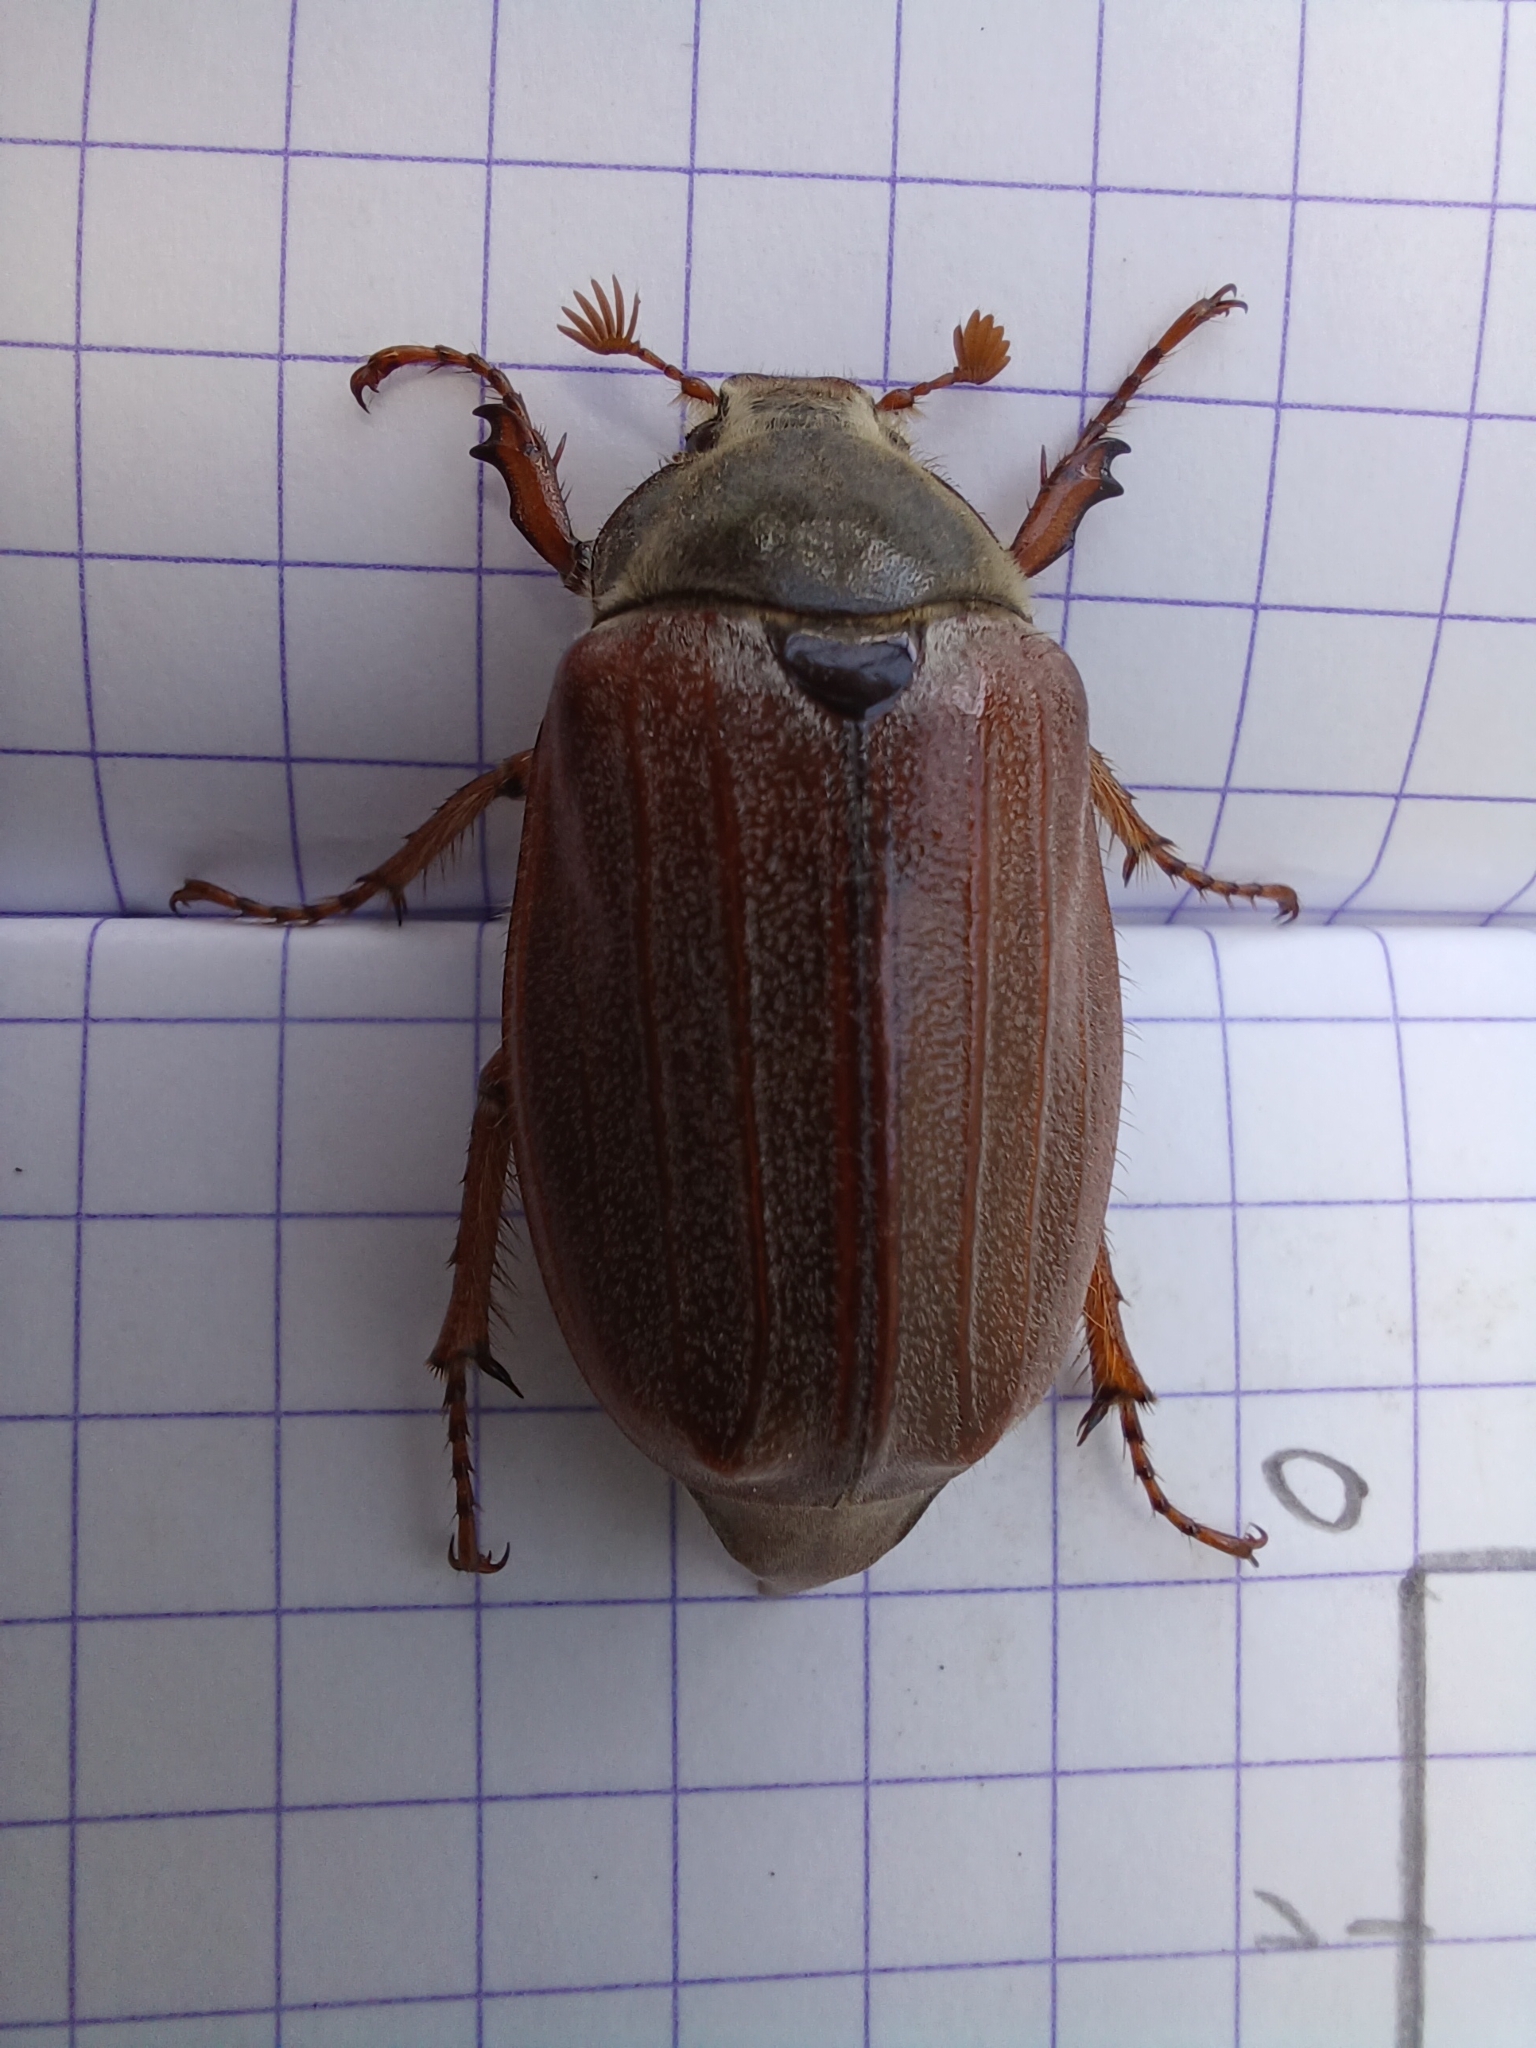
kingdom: Animalia
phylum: Arthropoda
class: Insecta
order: Coleoptera
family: Scarabaeidae
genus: Melolontha
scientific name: Melolontha melolontha
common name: Cockchafer maybeetle
